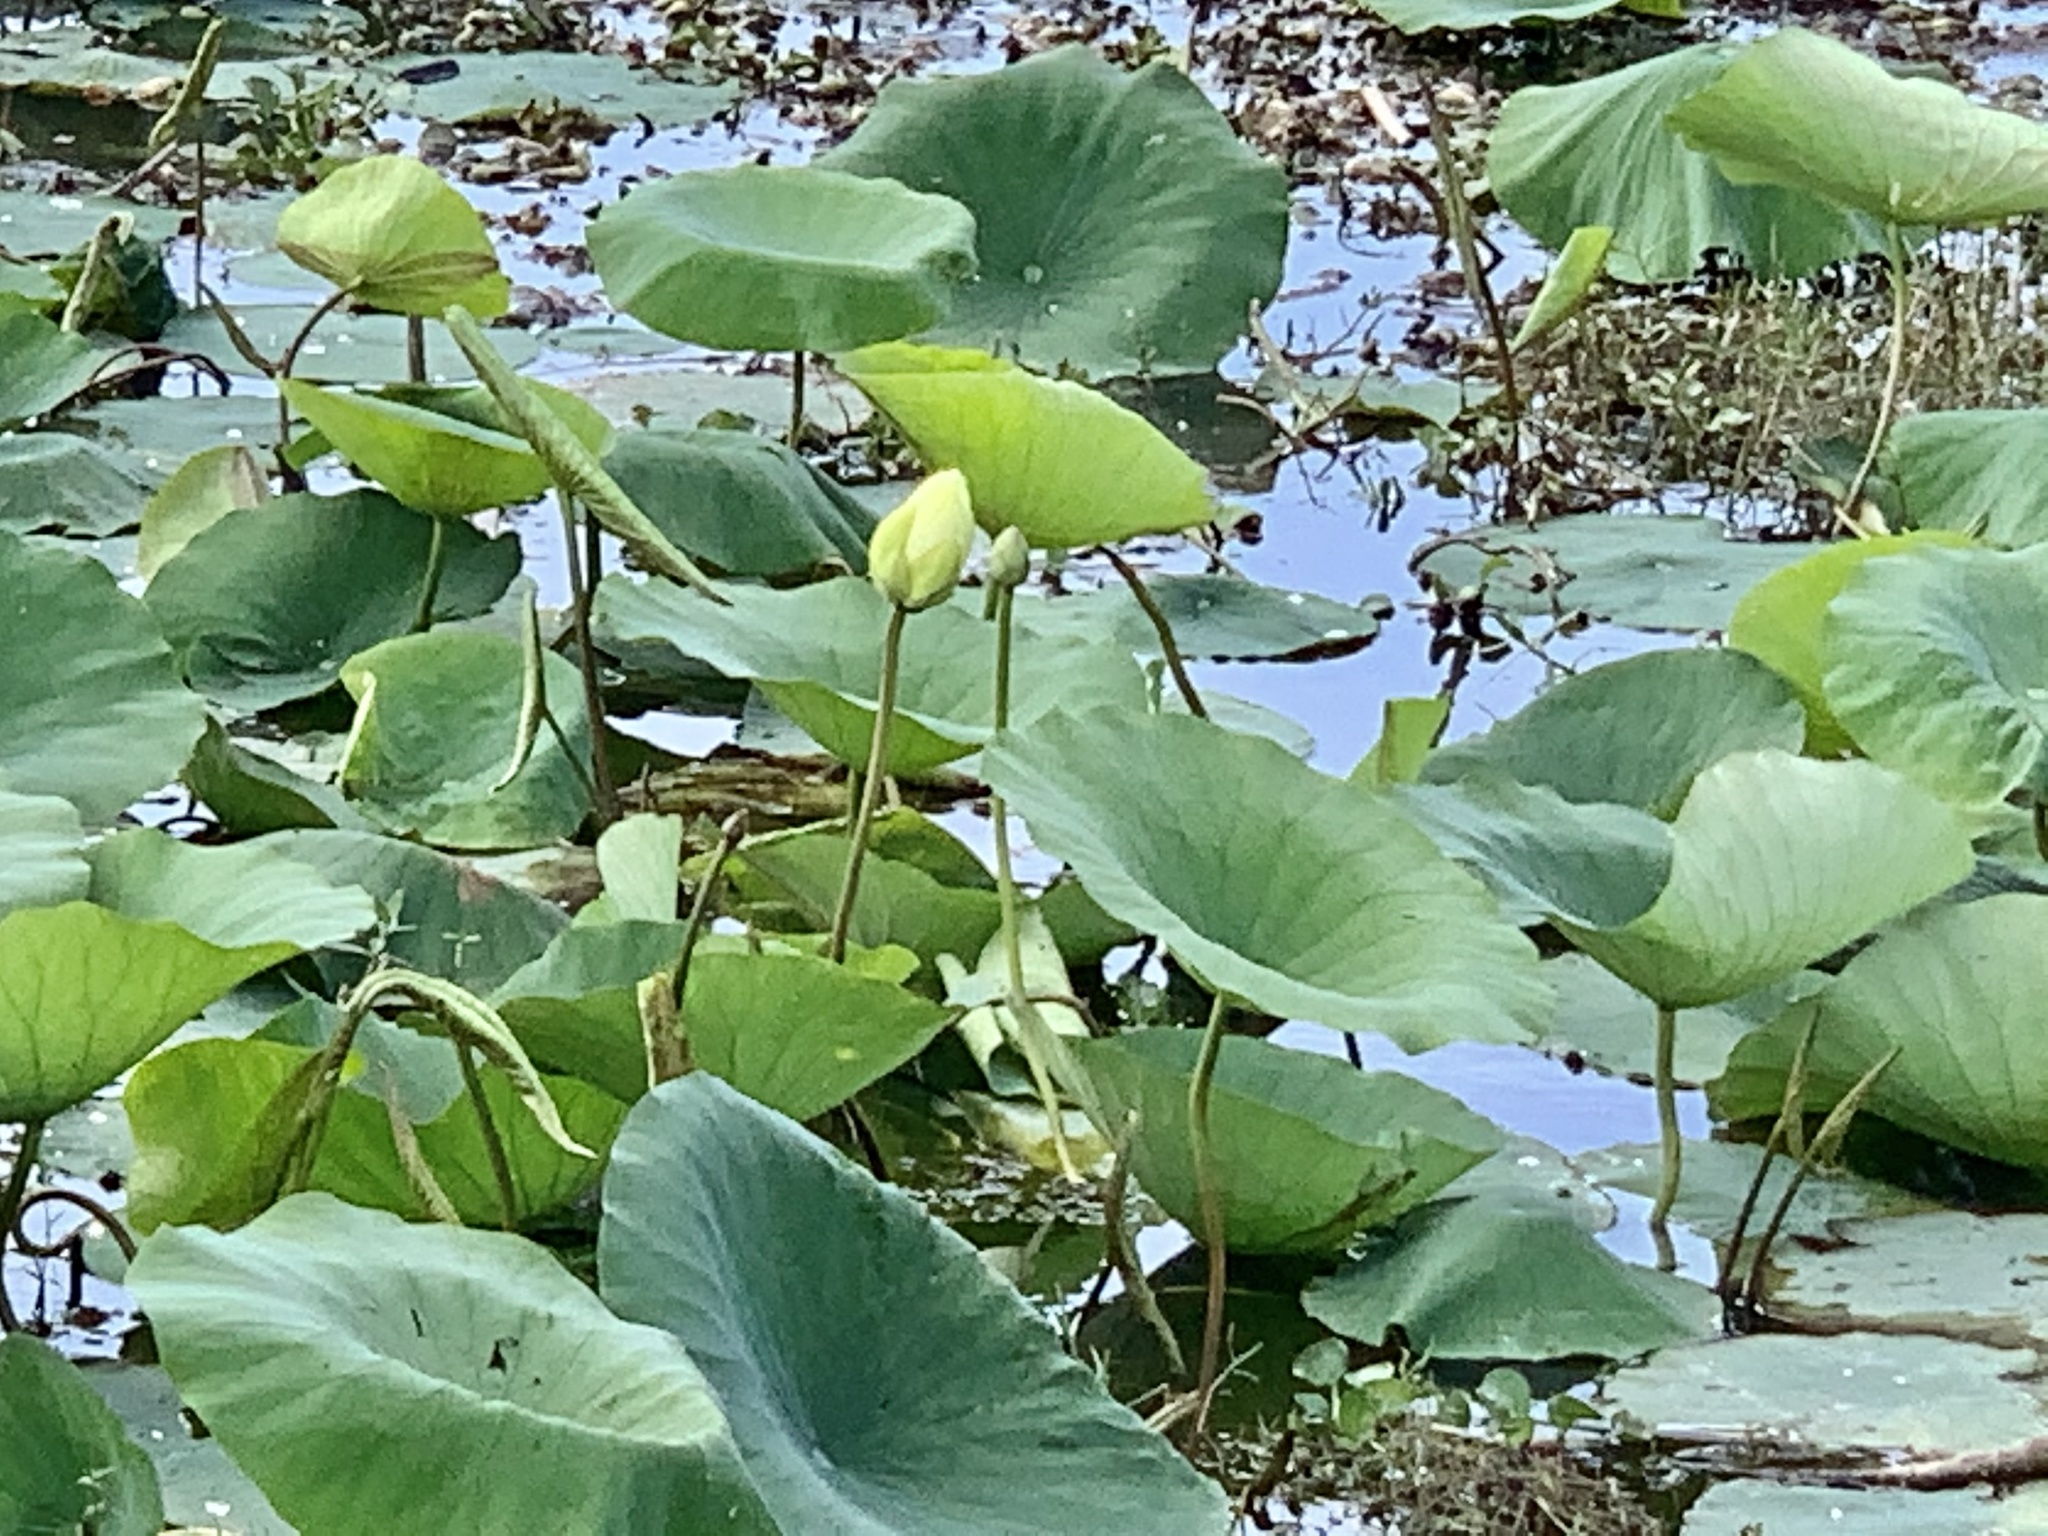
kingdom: Plantae
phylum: Tracheophyta
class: Magnoliopsida
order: Proteales
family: Nelumbonaceae
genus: Nelumbo
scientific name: Nelumbo lutea
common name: American lotus
